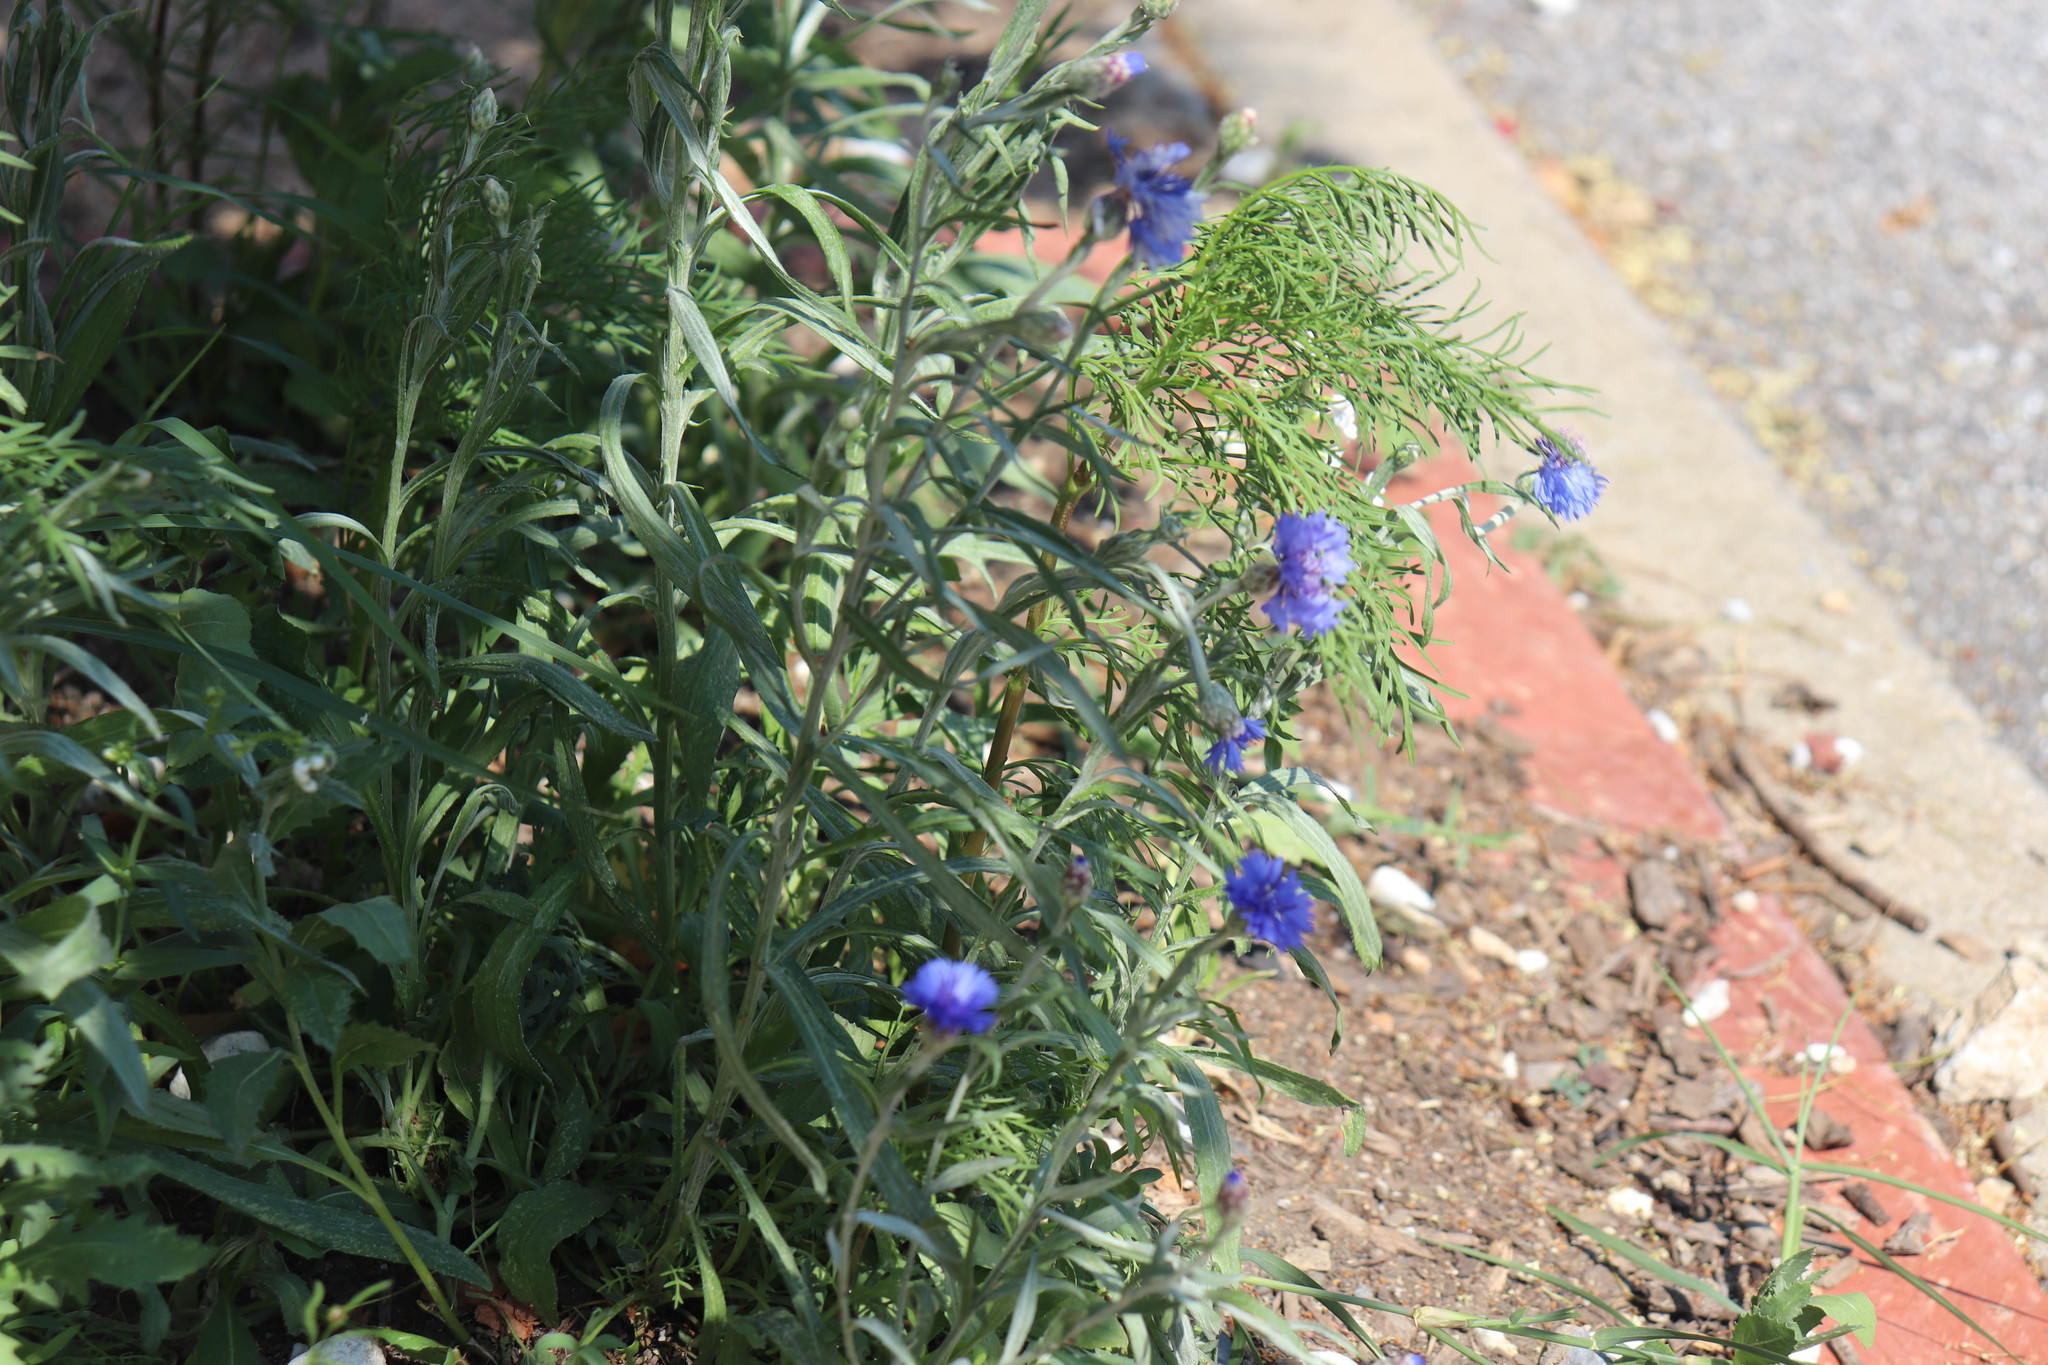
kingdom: Plantae
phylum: Tracheophyta
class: Magnoliopsida
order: Asterales
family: Asteraceae
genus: Centaurea
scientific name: Centaurea cyanus
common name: Cornflower
